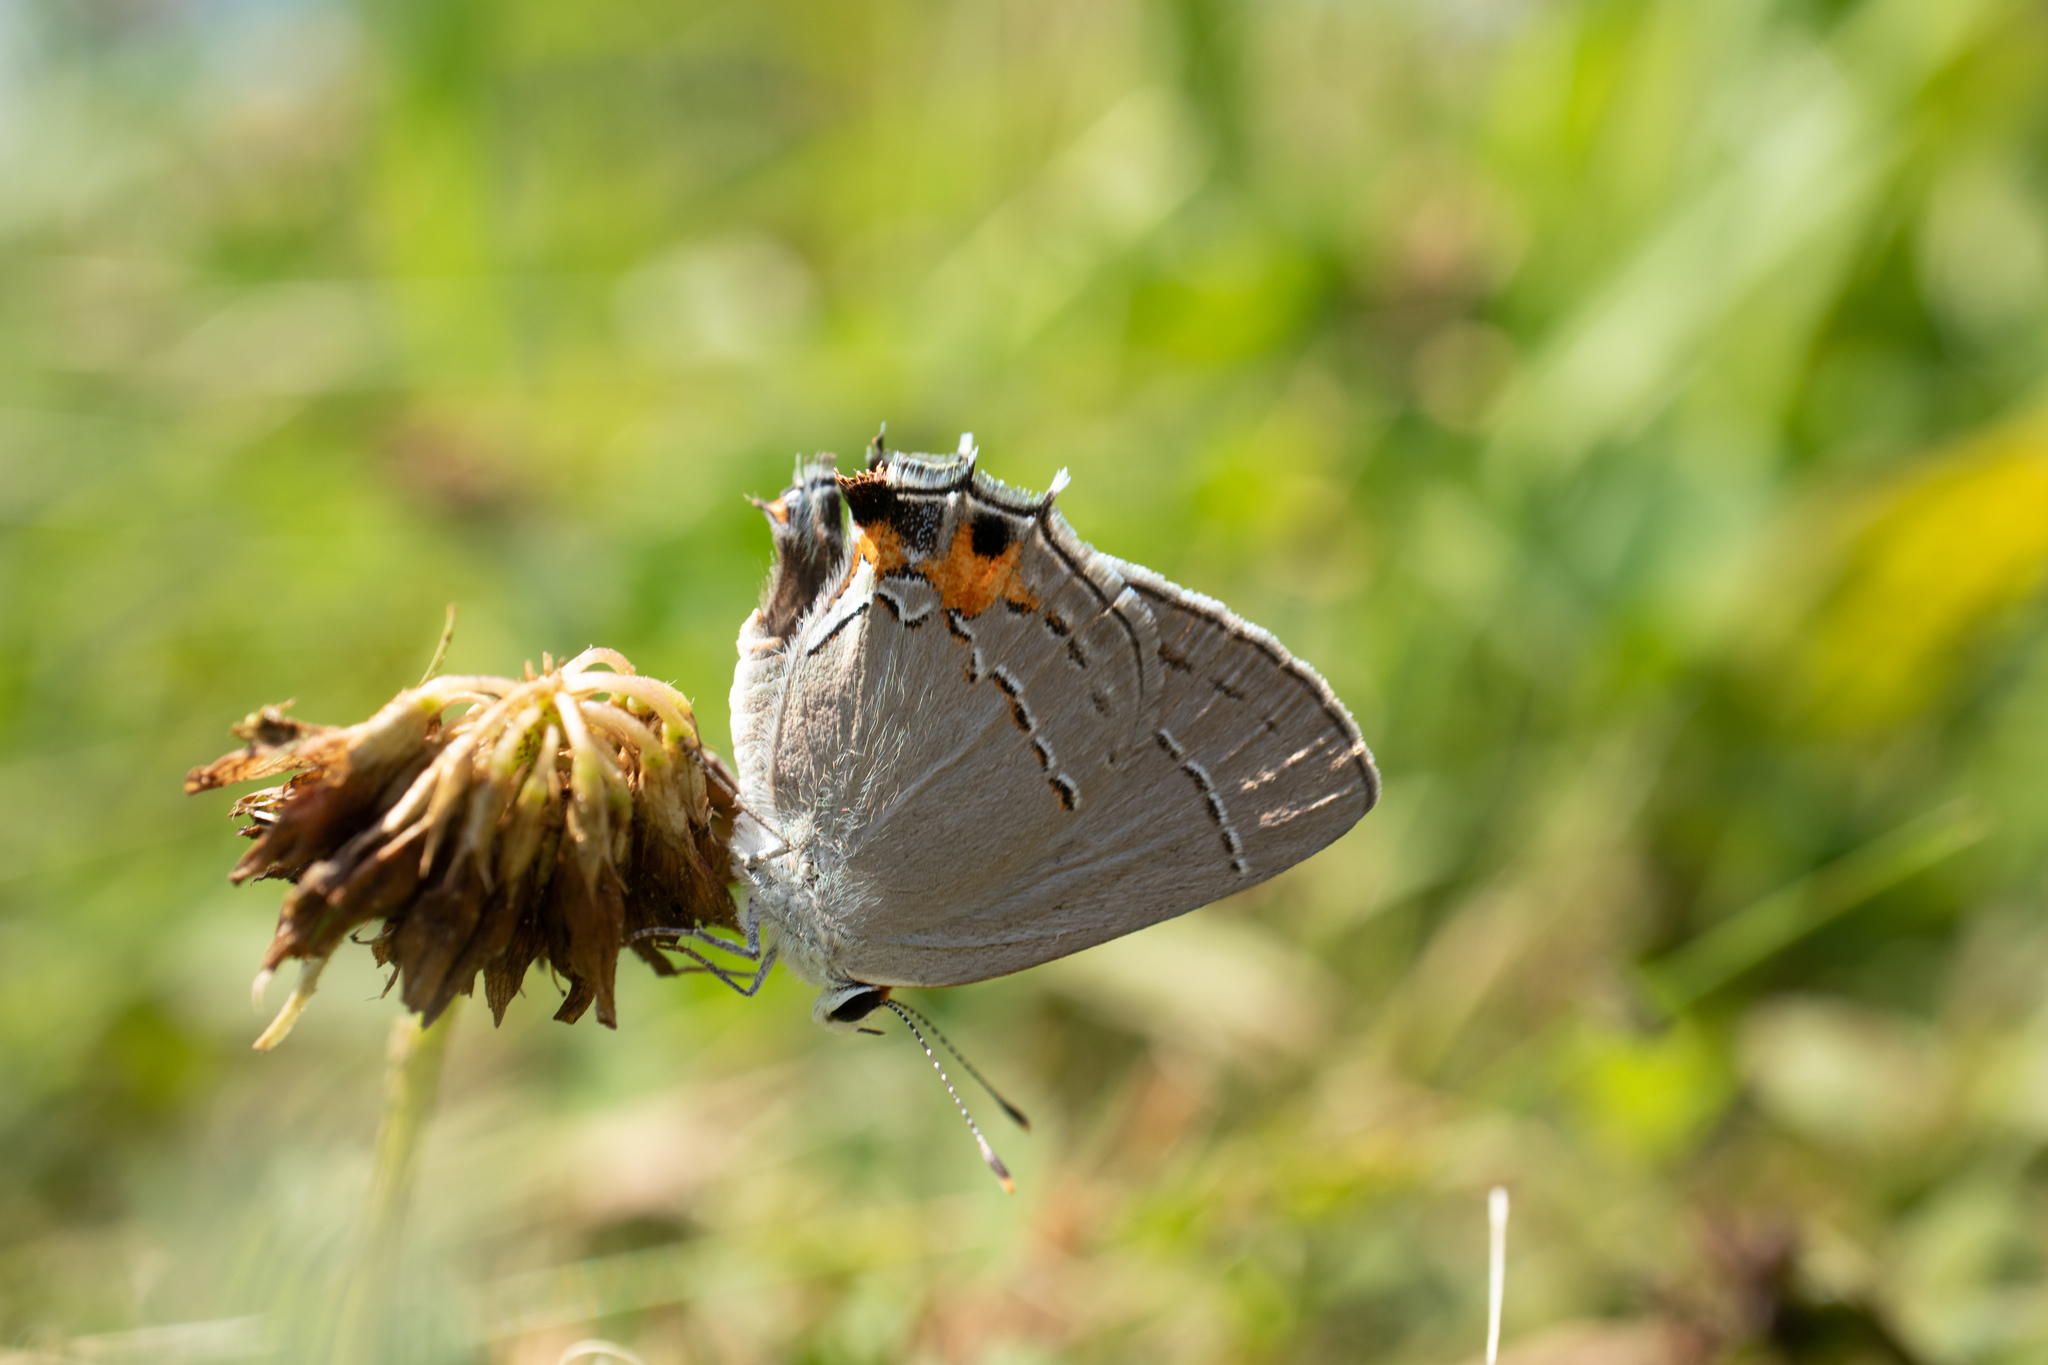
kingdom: Animalia
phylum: Arthropoda
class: Insecta
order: Lepidoptera
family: Lycaenidae
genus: Strymon
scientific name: Strymon melinus
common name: Gray hairstreak
